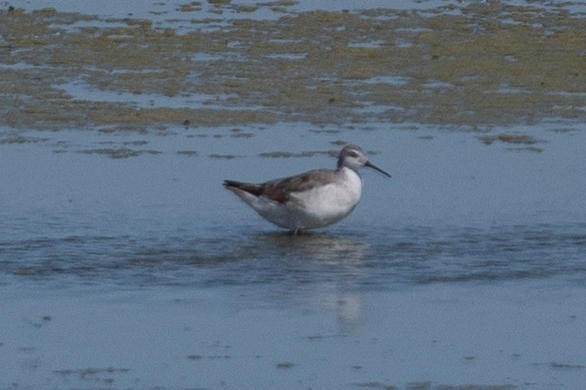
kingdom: Animalia
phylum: Chordata
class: Aves
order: Charadriiformes
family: Scolopacidae
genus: Phalaropus
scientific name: Phalaropus tricolor
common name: Wilson's phalarope
